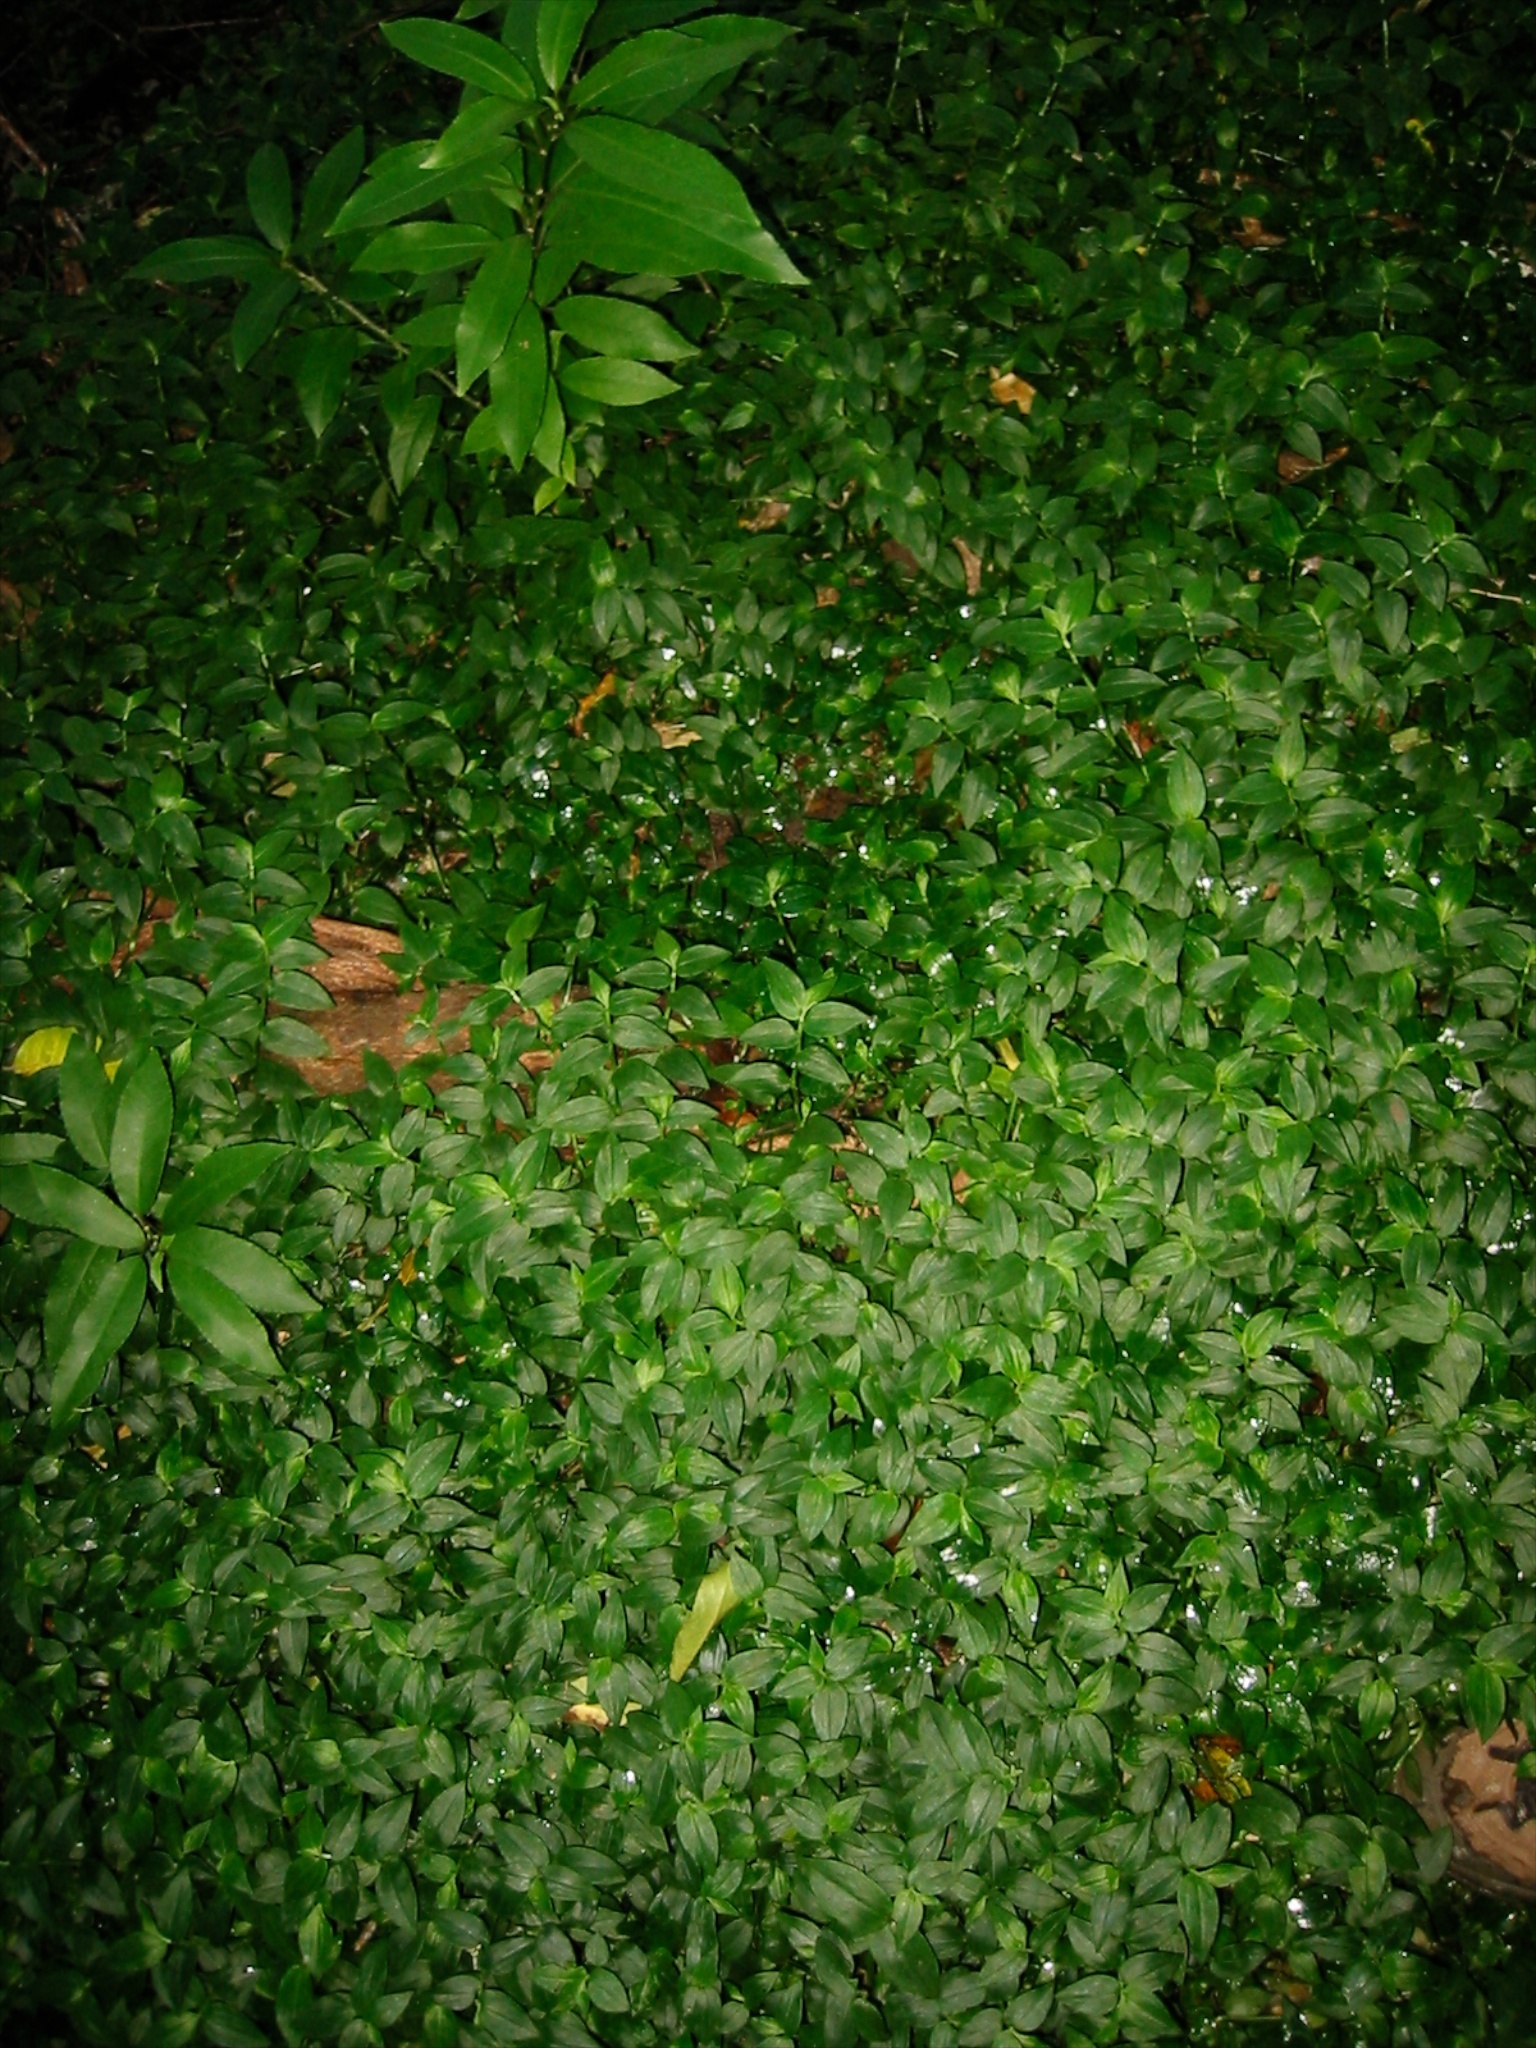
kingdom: Plantae
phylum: Tracheophyta
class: Liliopsida
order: Commelinales
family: Commelinaceae
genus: Tradescantia
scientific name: Tradescantia fluminensis
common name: Wandering-jew
